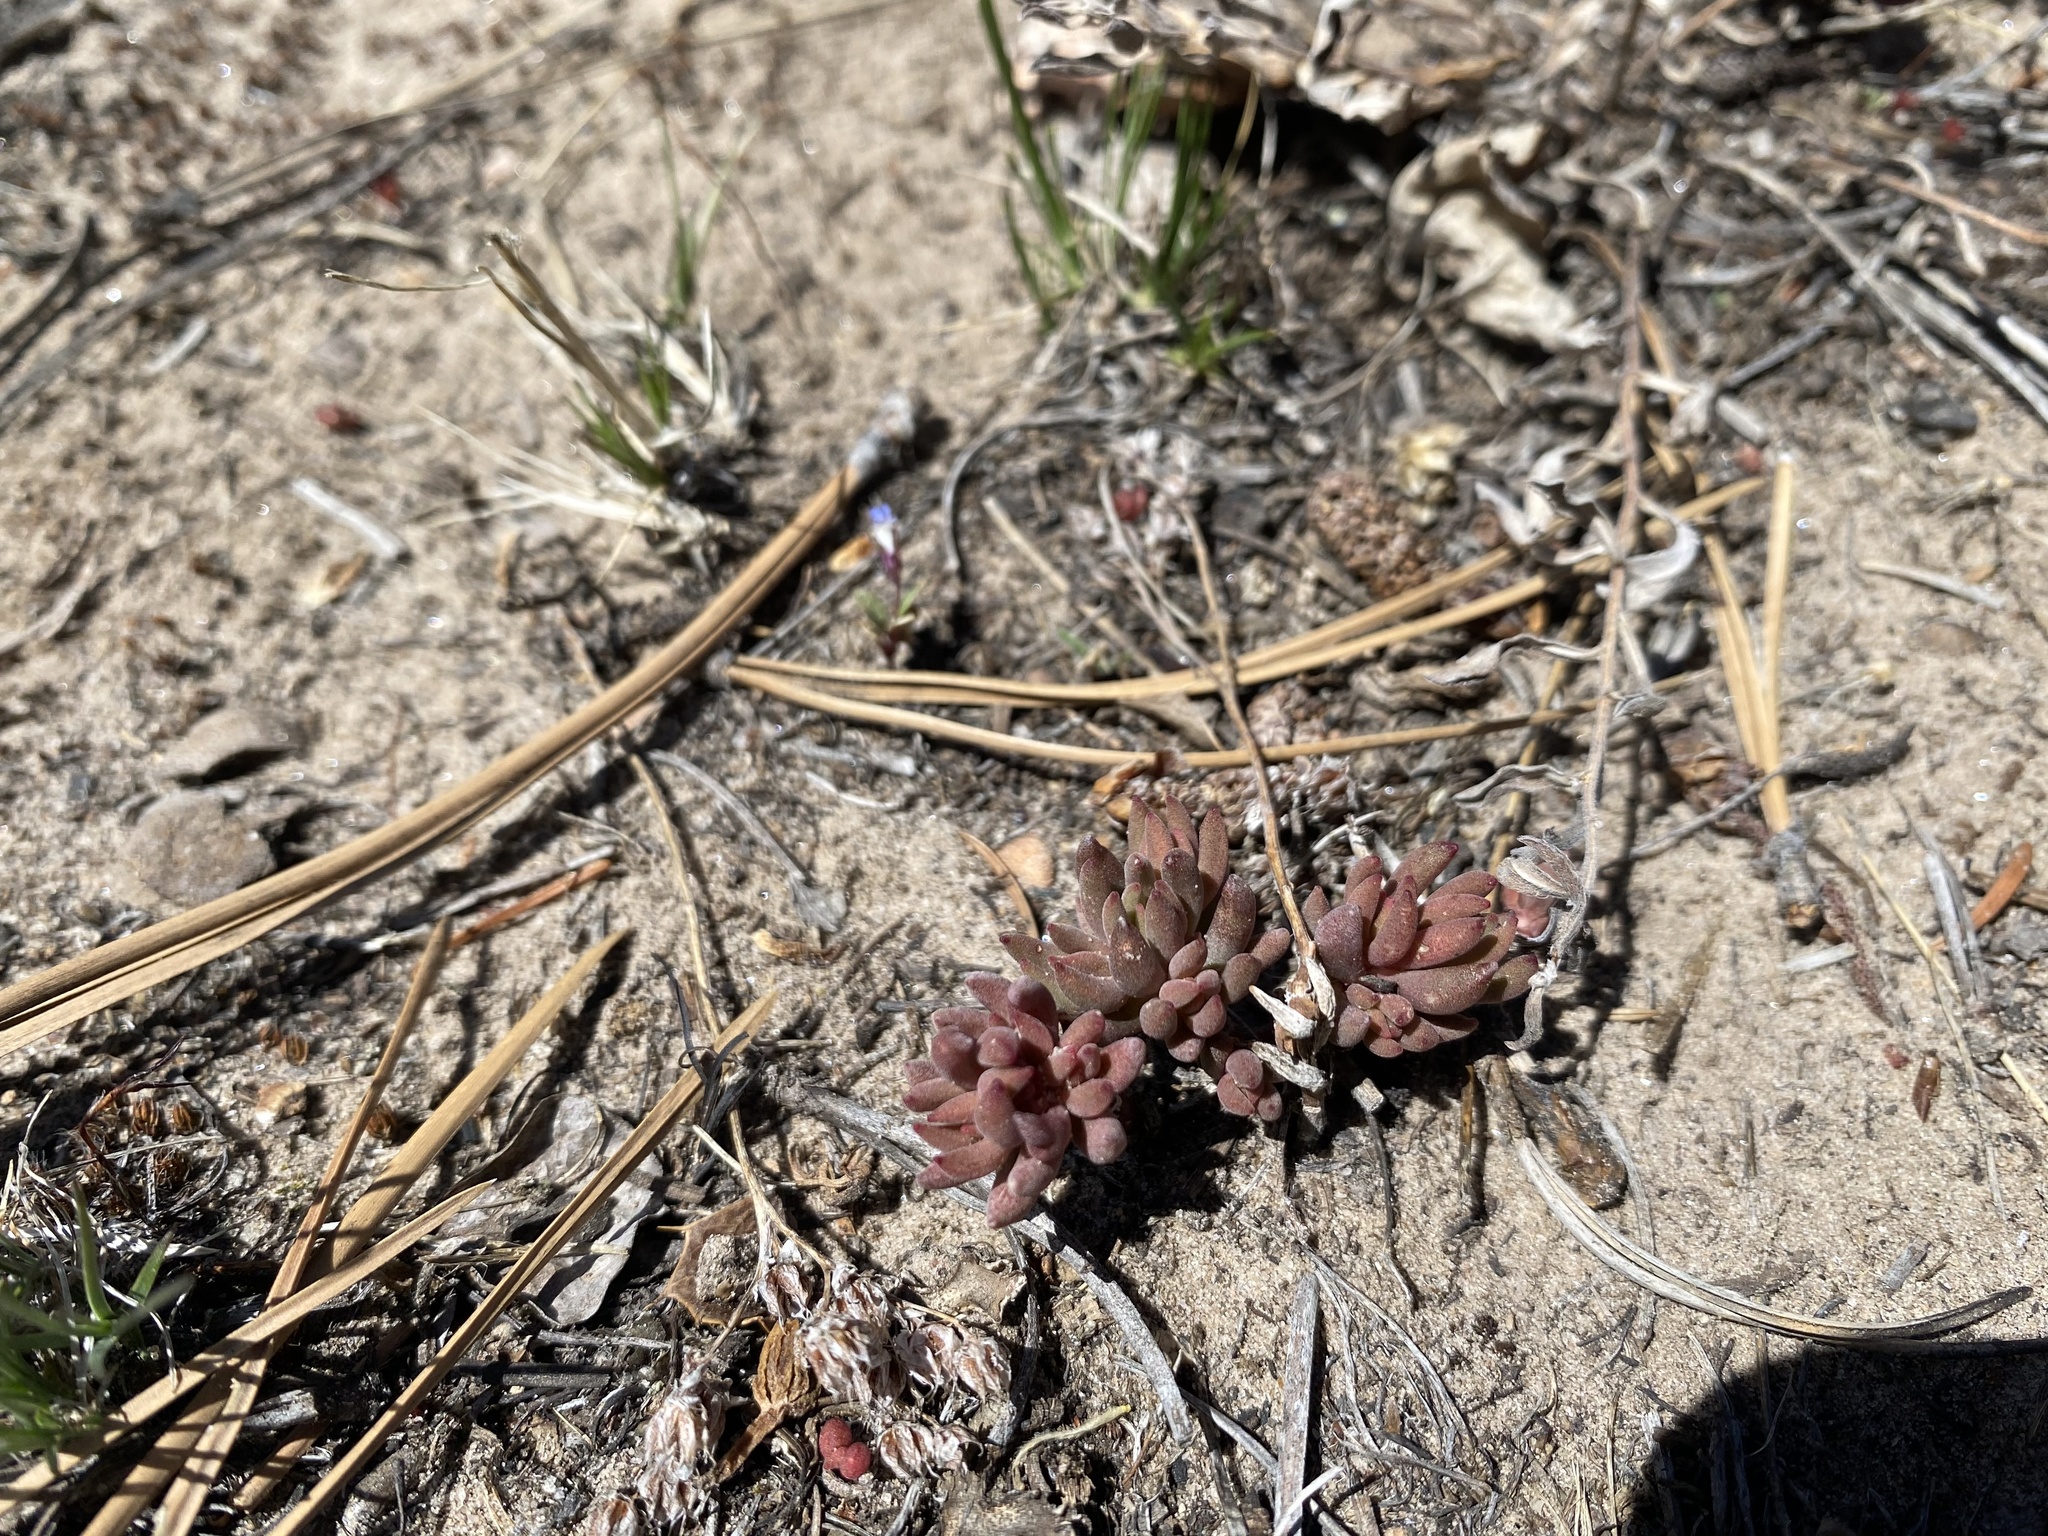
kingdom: Plantae
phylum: Tracheophyta
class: Magnoliopsida
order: Saxifragales
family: Crassulaceae
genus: Sedum
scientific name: Sedum lanceolatum
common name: Common stonecrop
